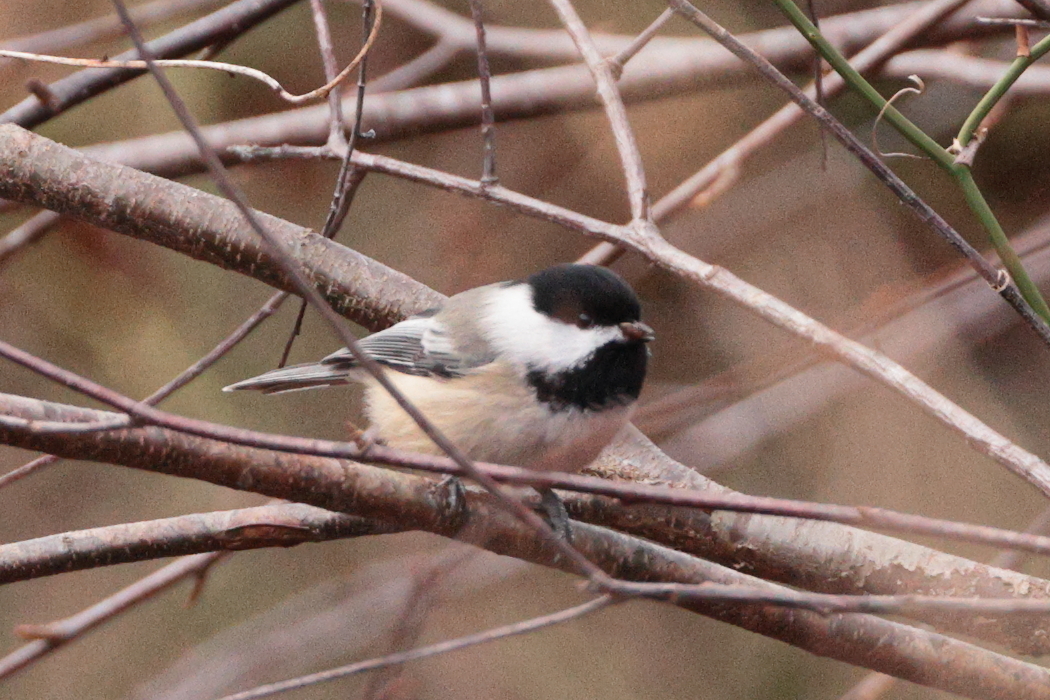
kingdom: Animalia
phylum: Chordata
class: Aves
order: Passeriformes
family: Paridae
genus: Poecile
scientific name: Poecile atricapillus
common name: Black-capped chickadee
